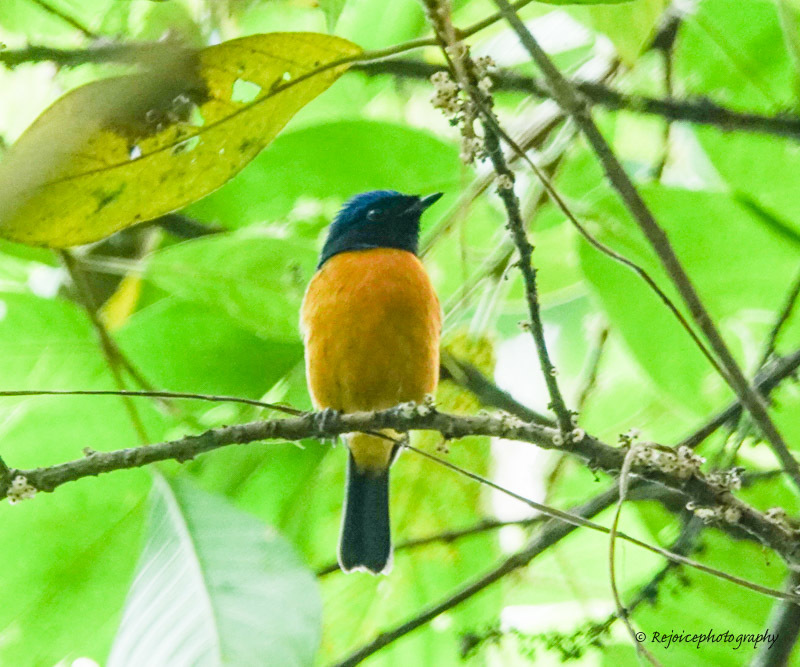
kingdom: Animalia
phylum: Chordata
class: Aves
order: Passeriformes
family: Muscicapidae
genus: Niltava
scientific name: Niltava sundara
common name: Rufous-bellied niltava
